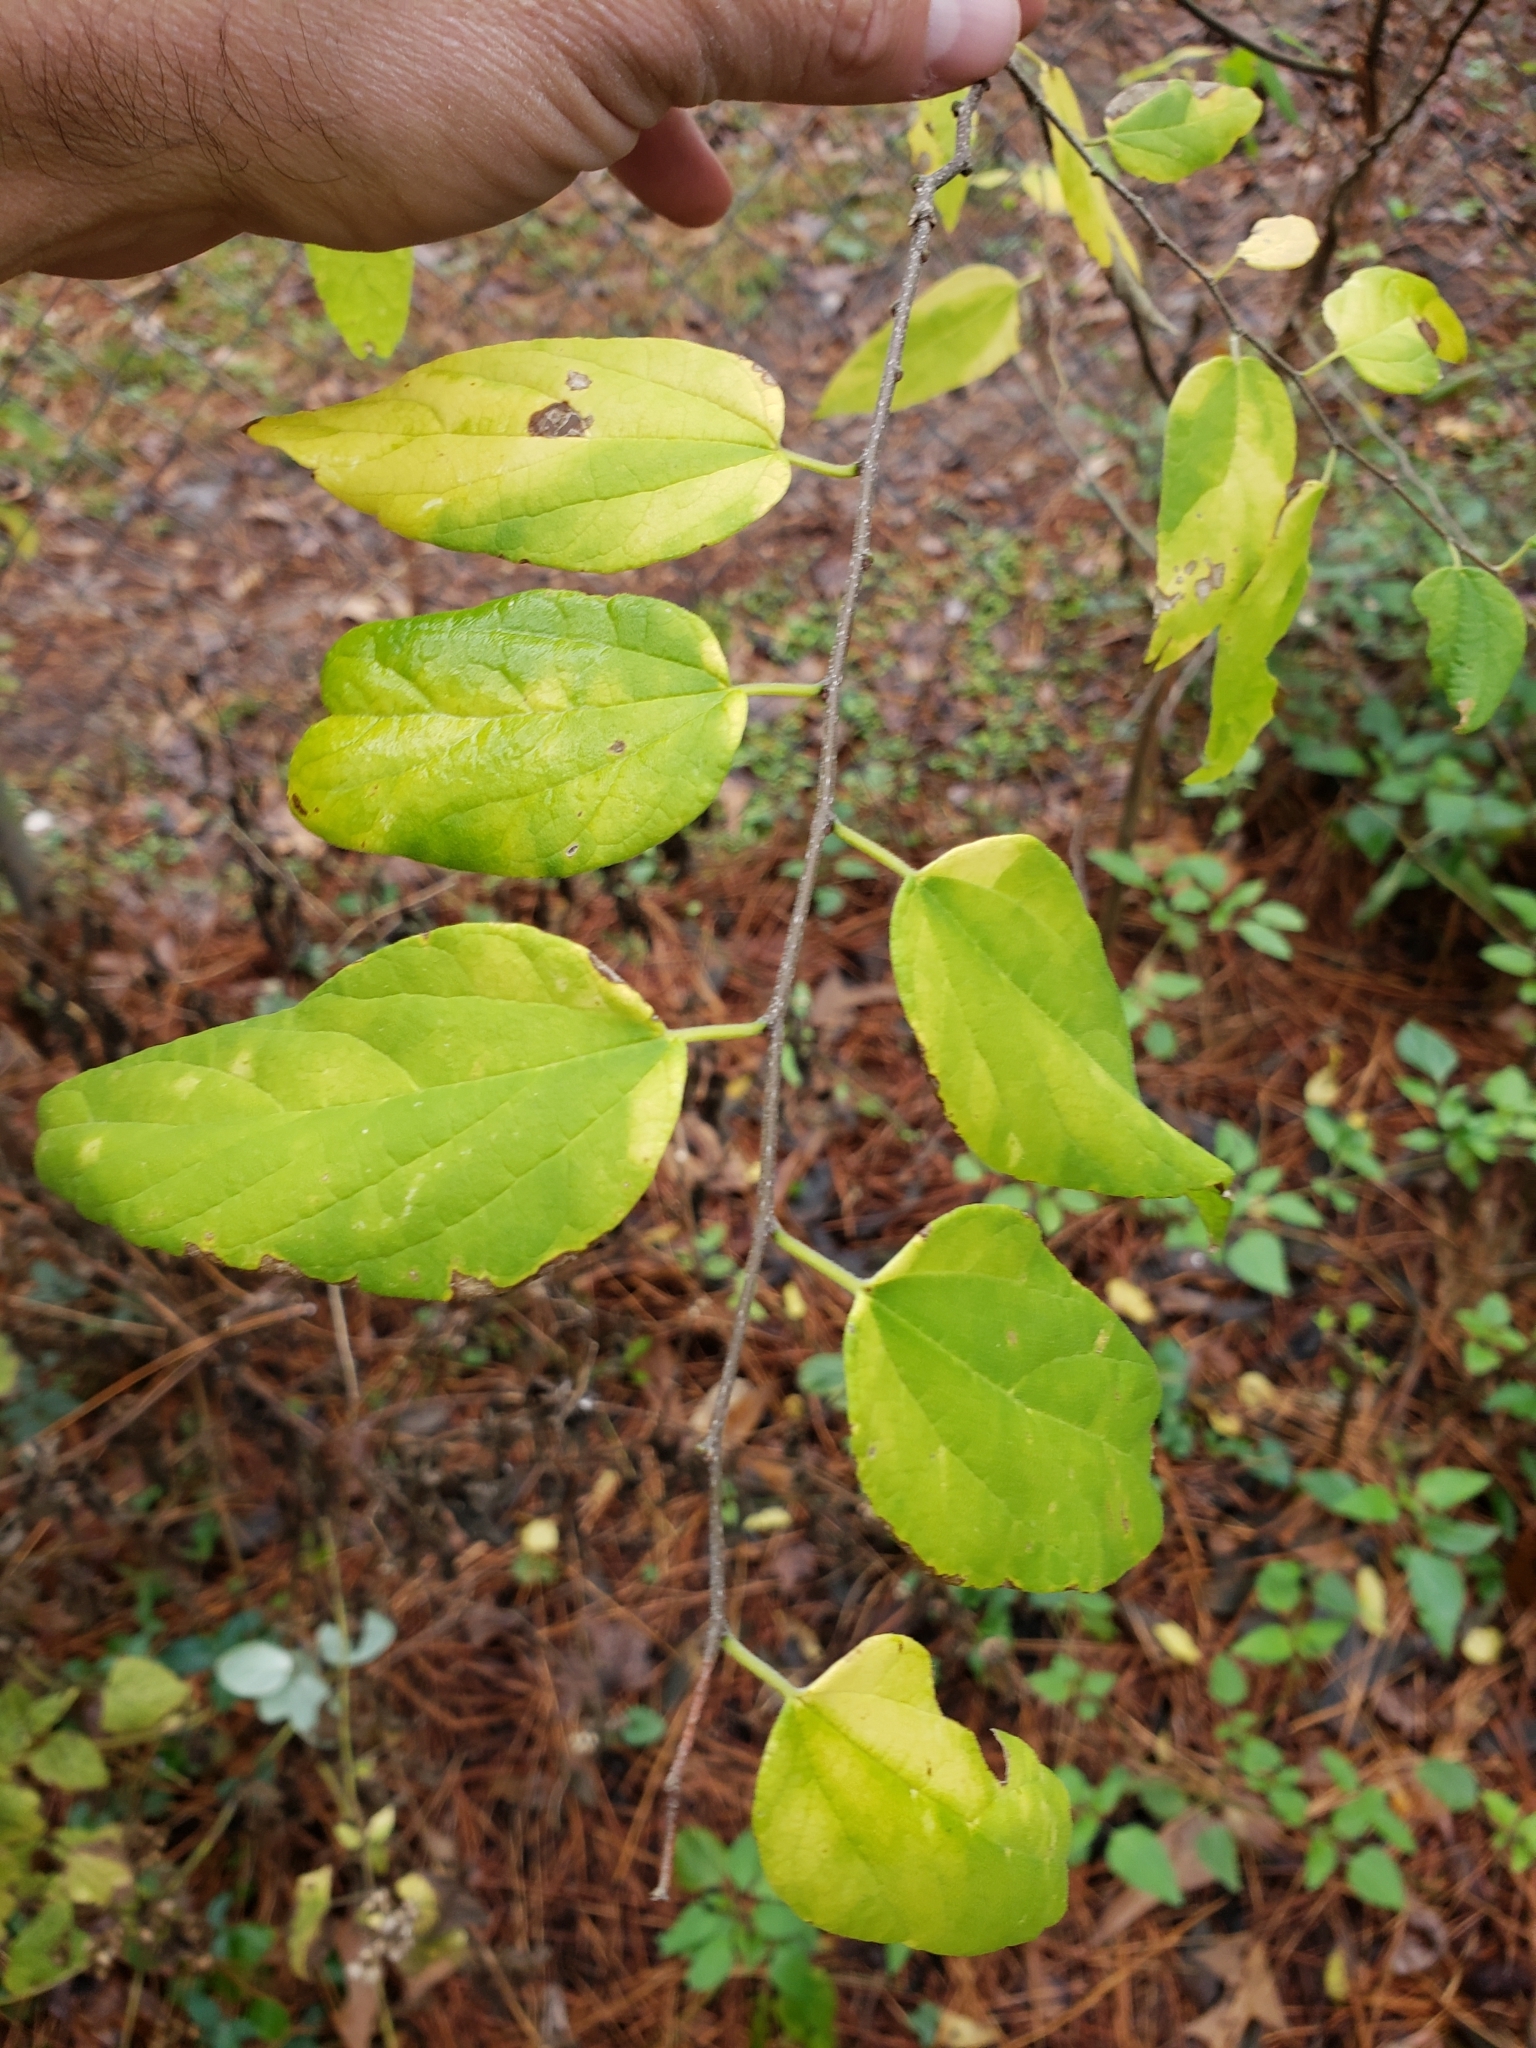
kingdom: Plantae
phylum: Tracheophyta
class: Magnoliopsida
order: Rosales
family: Cannabaceae
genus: Celtis
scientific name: Celtis laevigata
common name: Sugarberry
